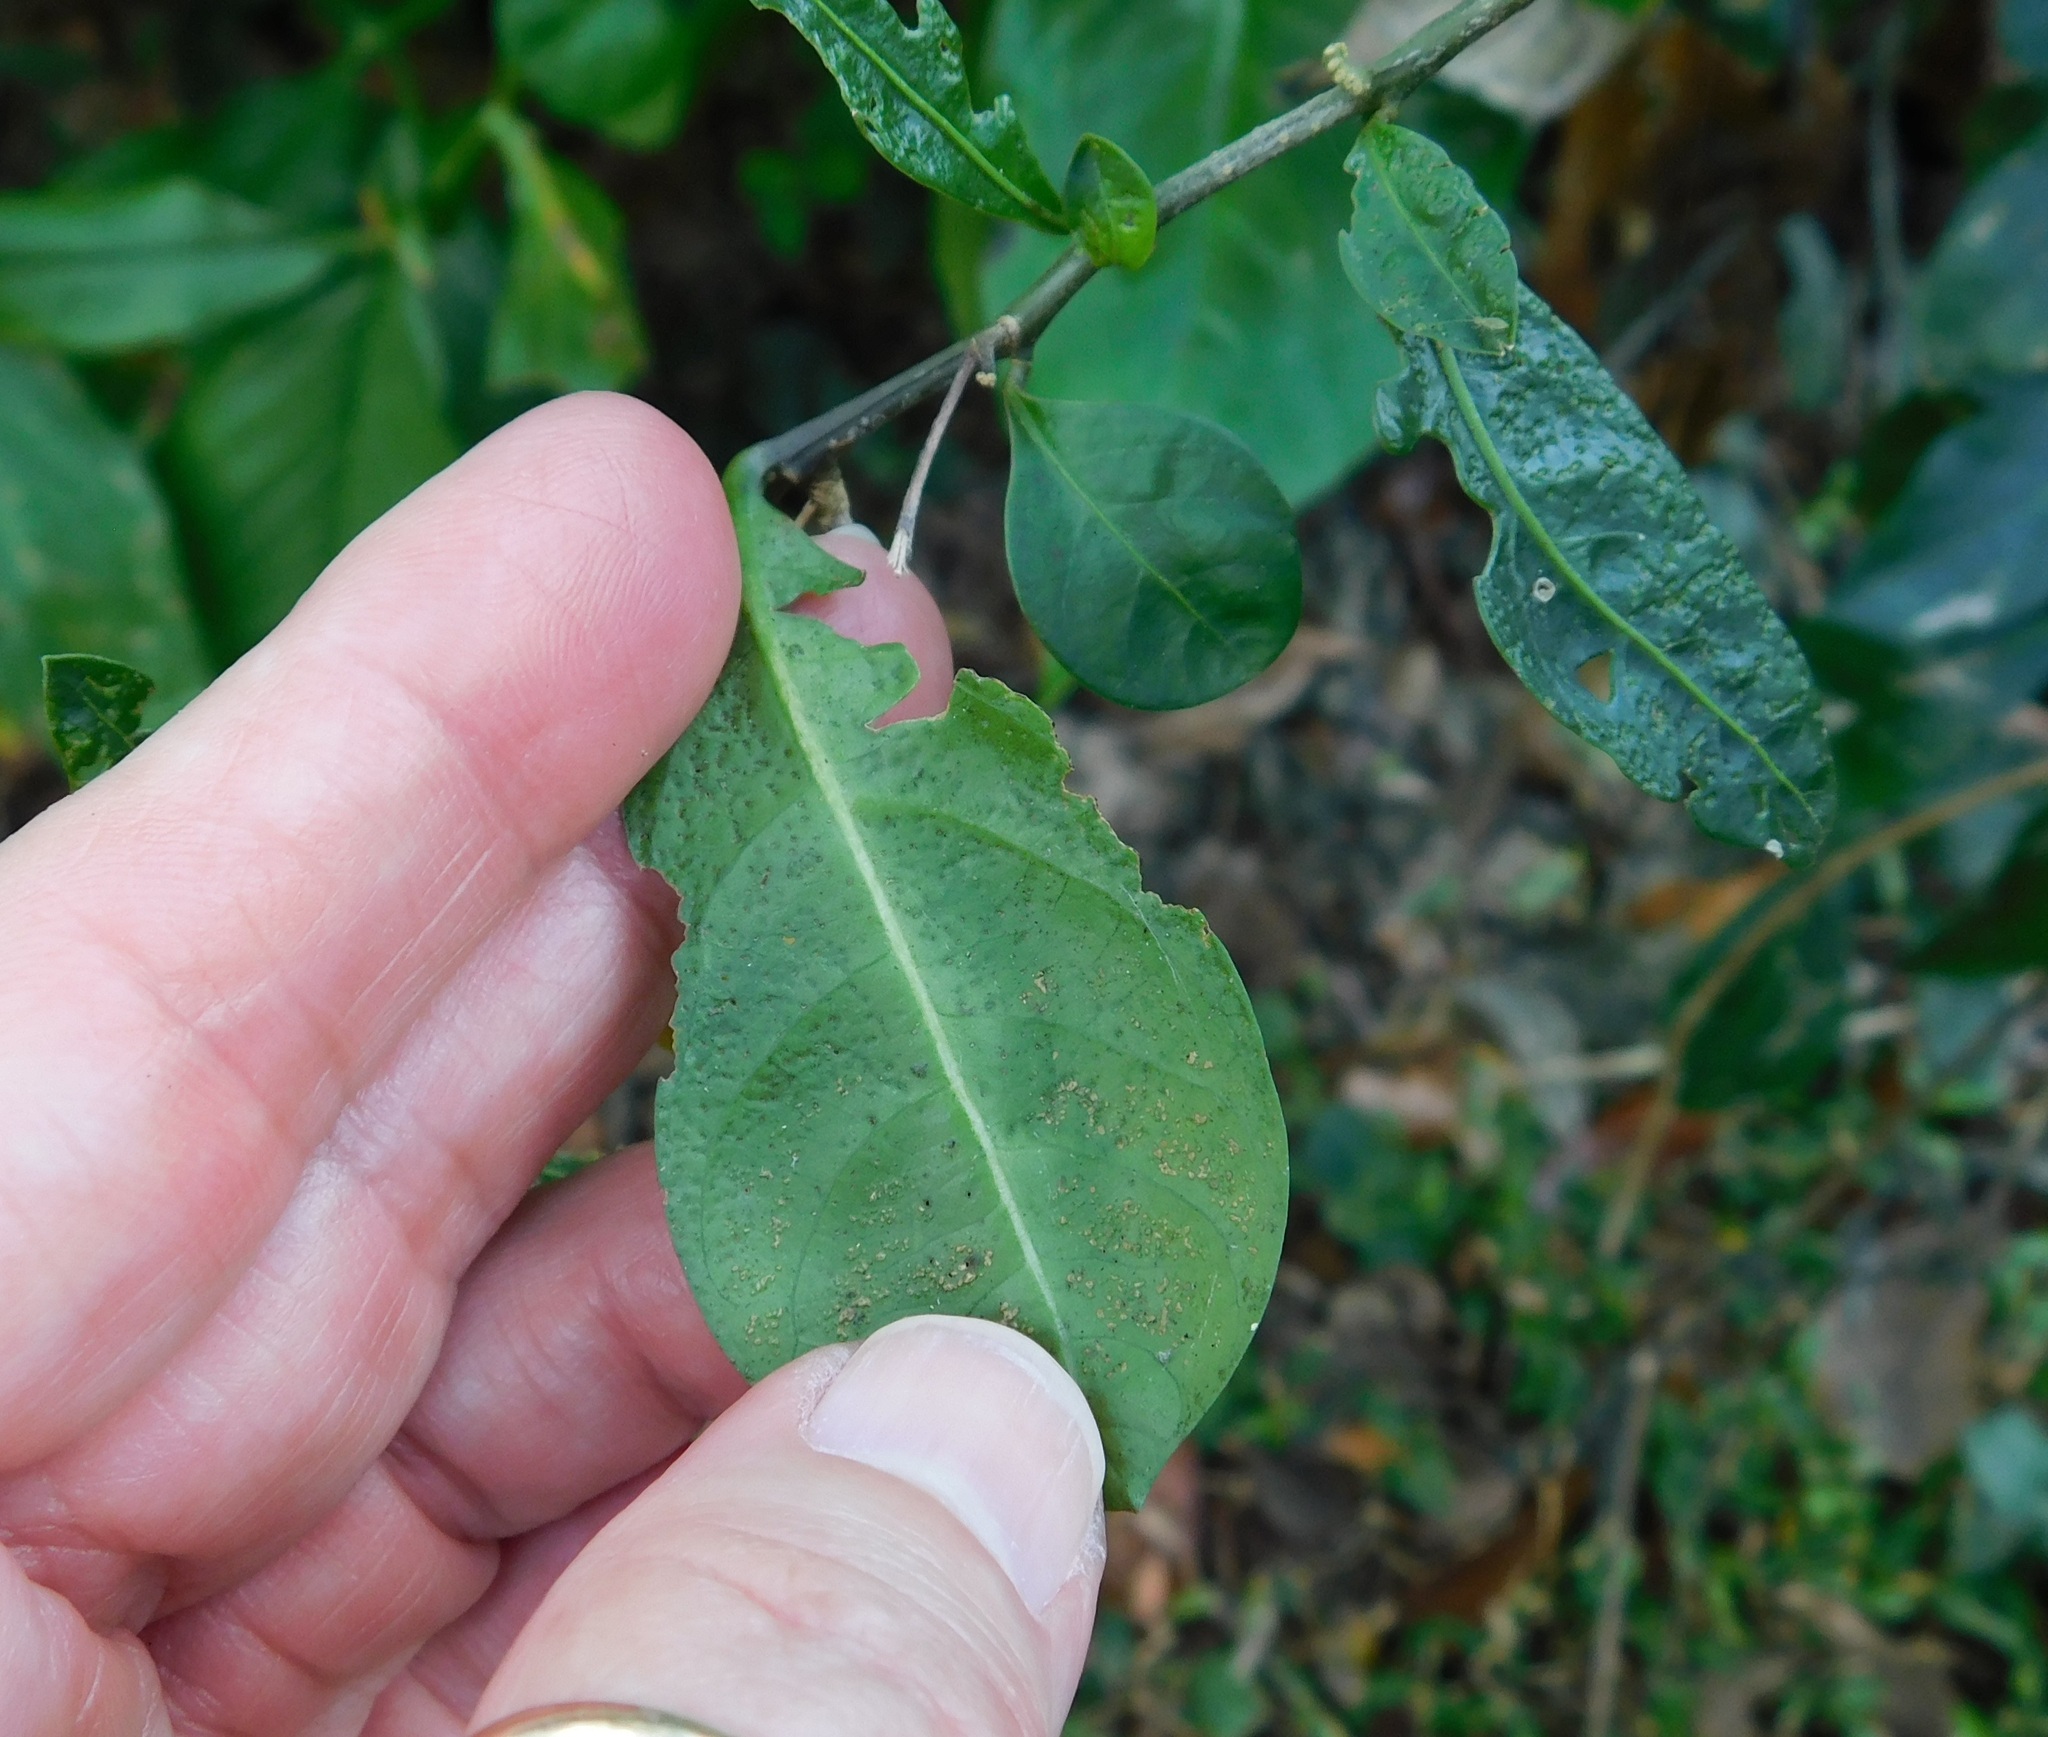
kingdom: Plantae
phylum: Tracheophyta
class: Magnoliopsida
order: Solanales
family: Solanaceae
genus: Solanum
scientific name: Solanum diphyllum
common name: Twoleaf nightshade
